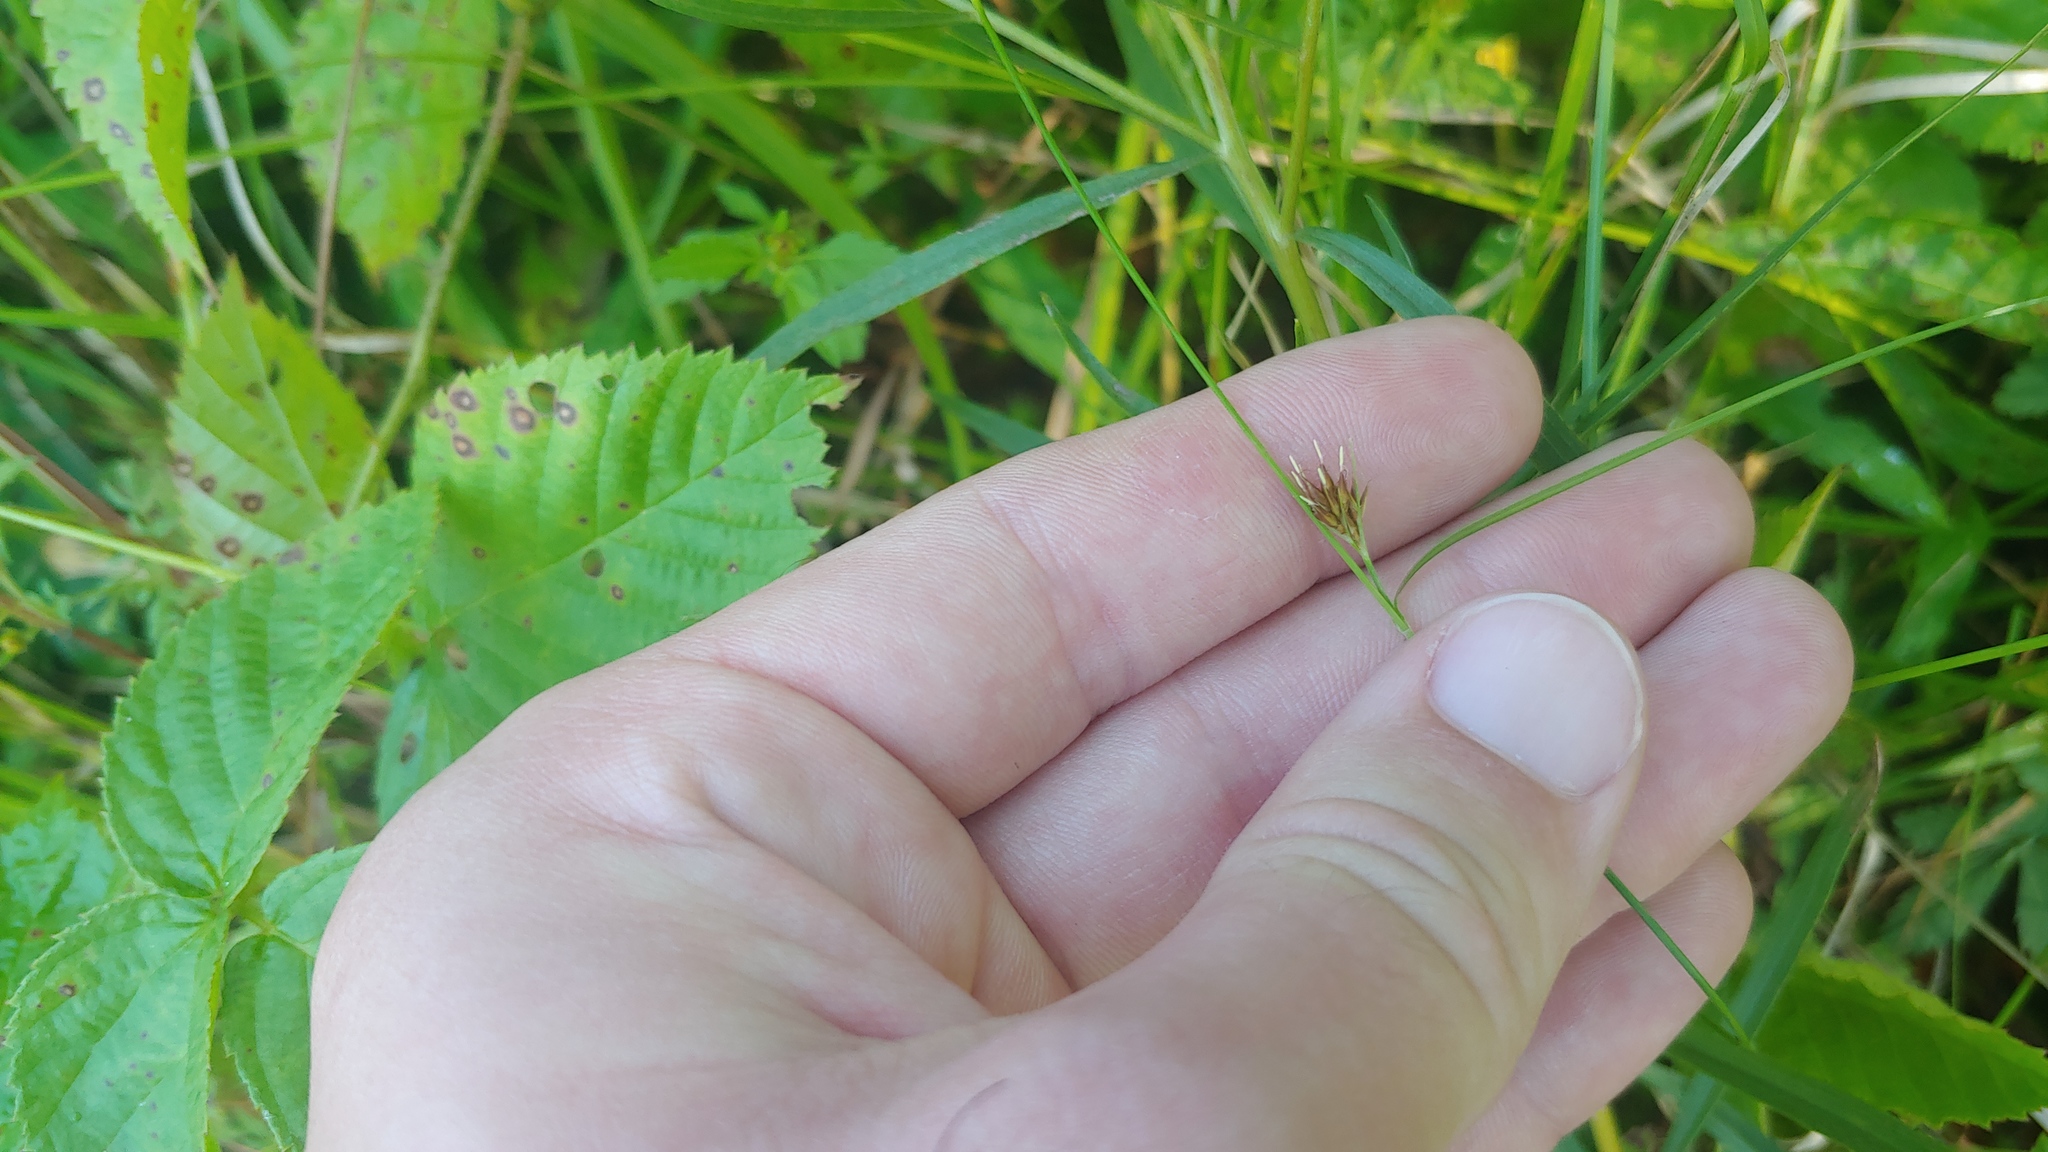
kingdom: Plantae
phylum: Tracheophyta
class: Liliopsida
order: Poales
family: Cyperaceae
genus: Rhynchospora
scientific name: Rhynchospora capitellata
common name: Brownish beaksedge
